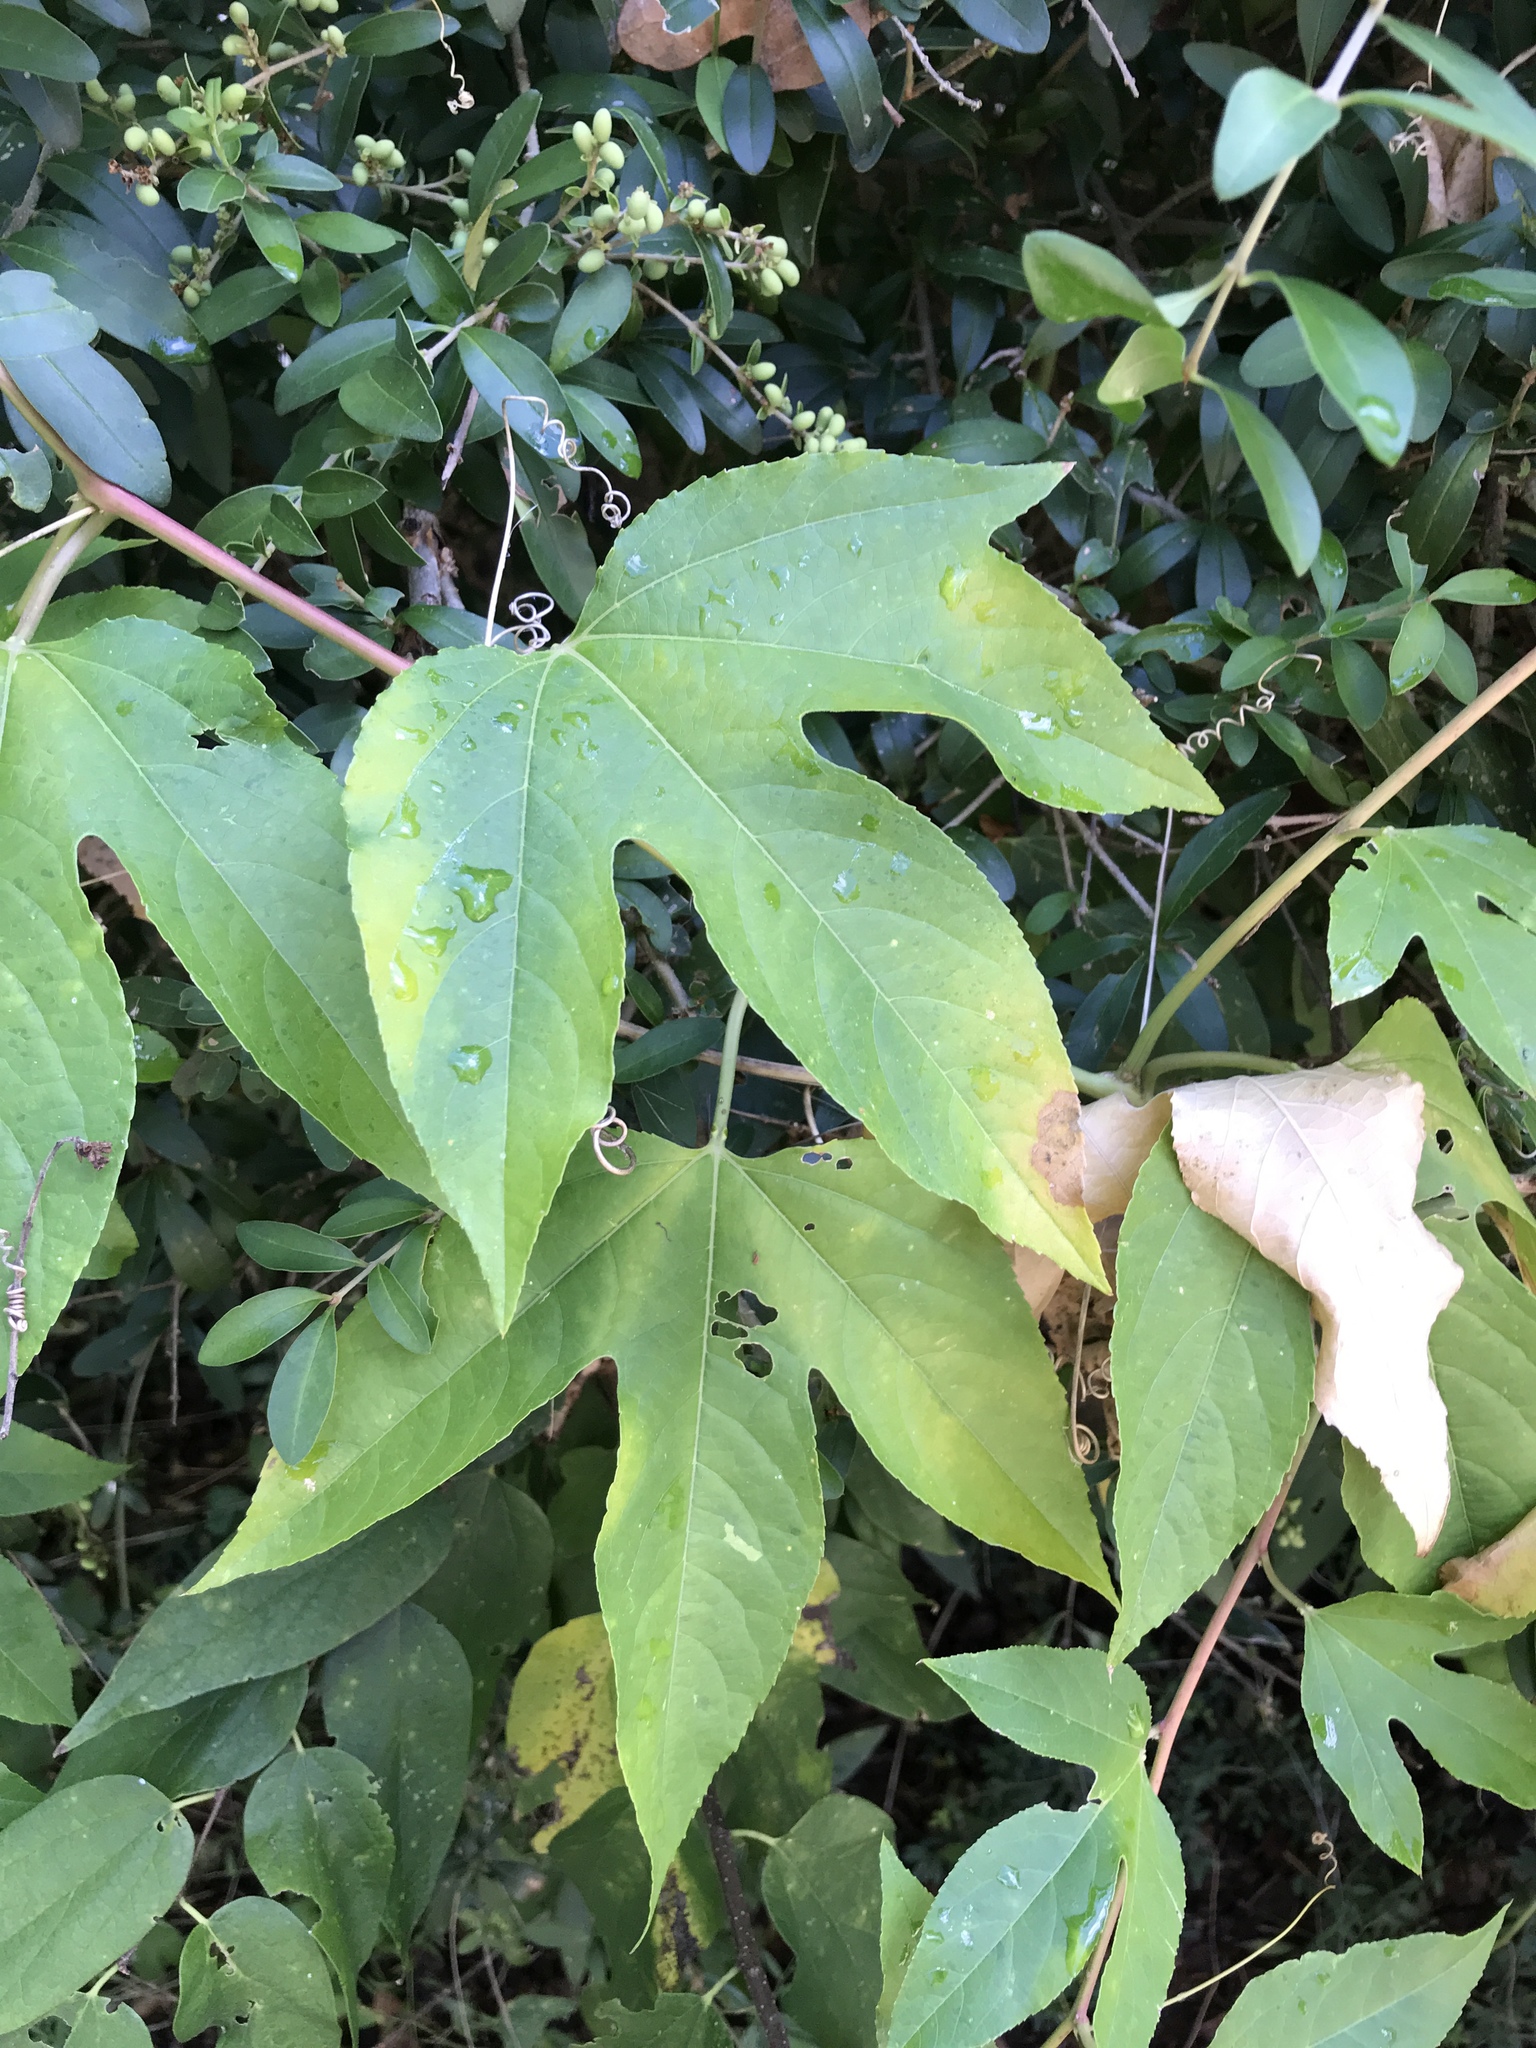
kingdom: Plantae
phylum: Tracheophyta
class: Magnoliopsida
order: Malpighiales
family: Passifloraceae
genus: Passiflora
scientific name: Passiflora incarnata
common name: Apricot-vine
